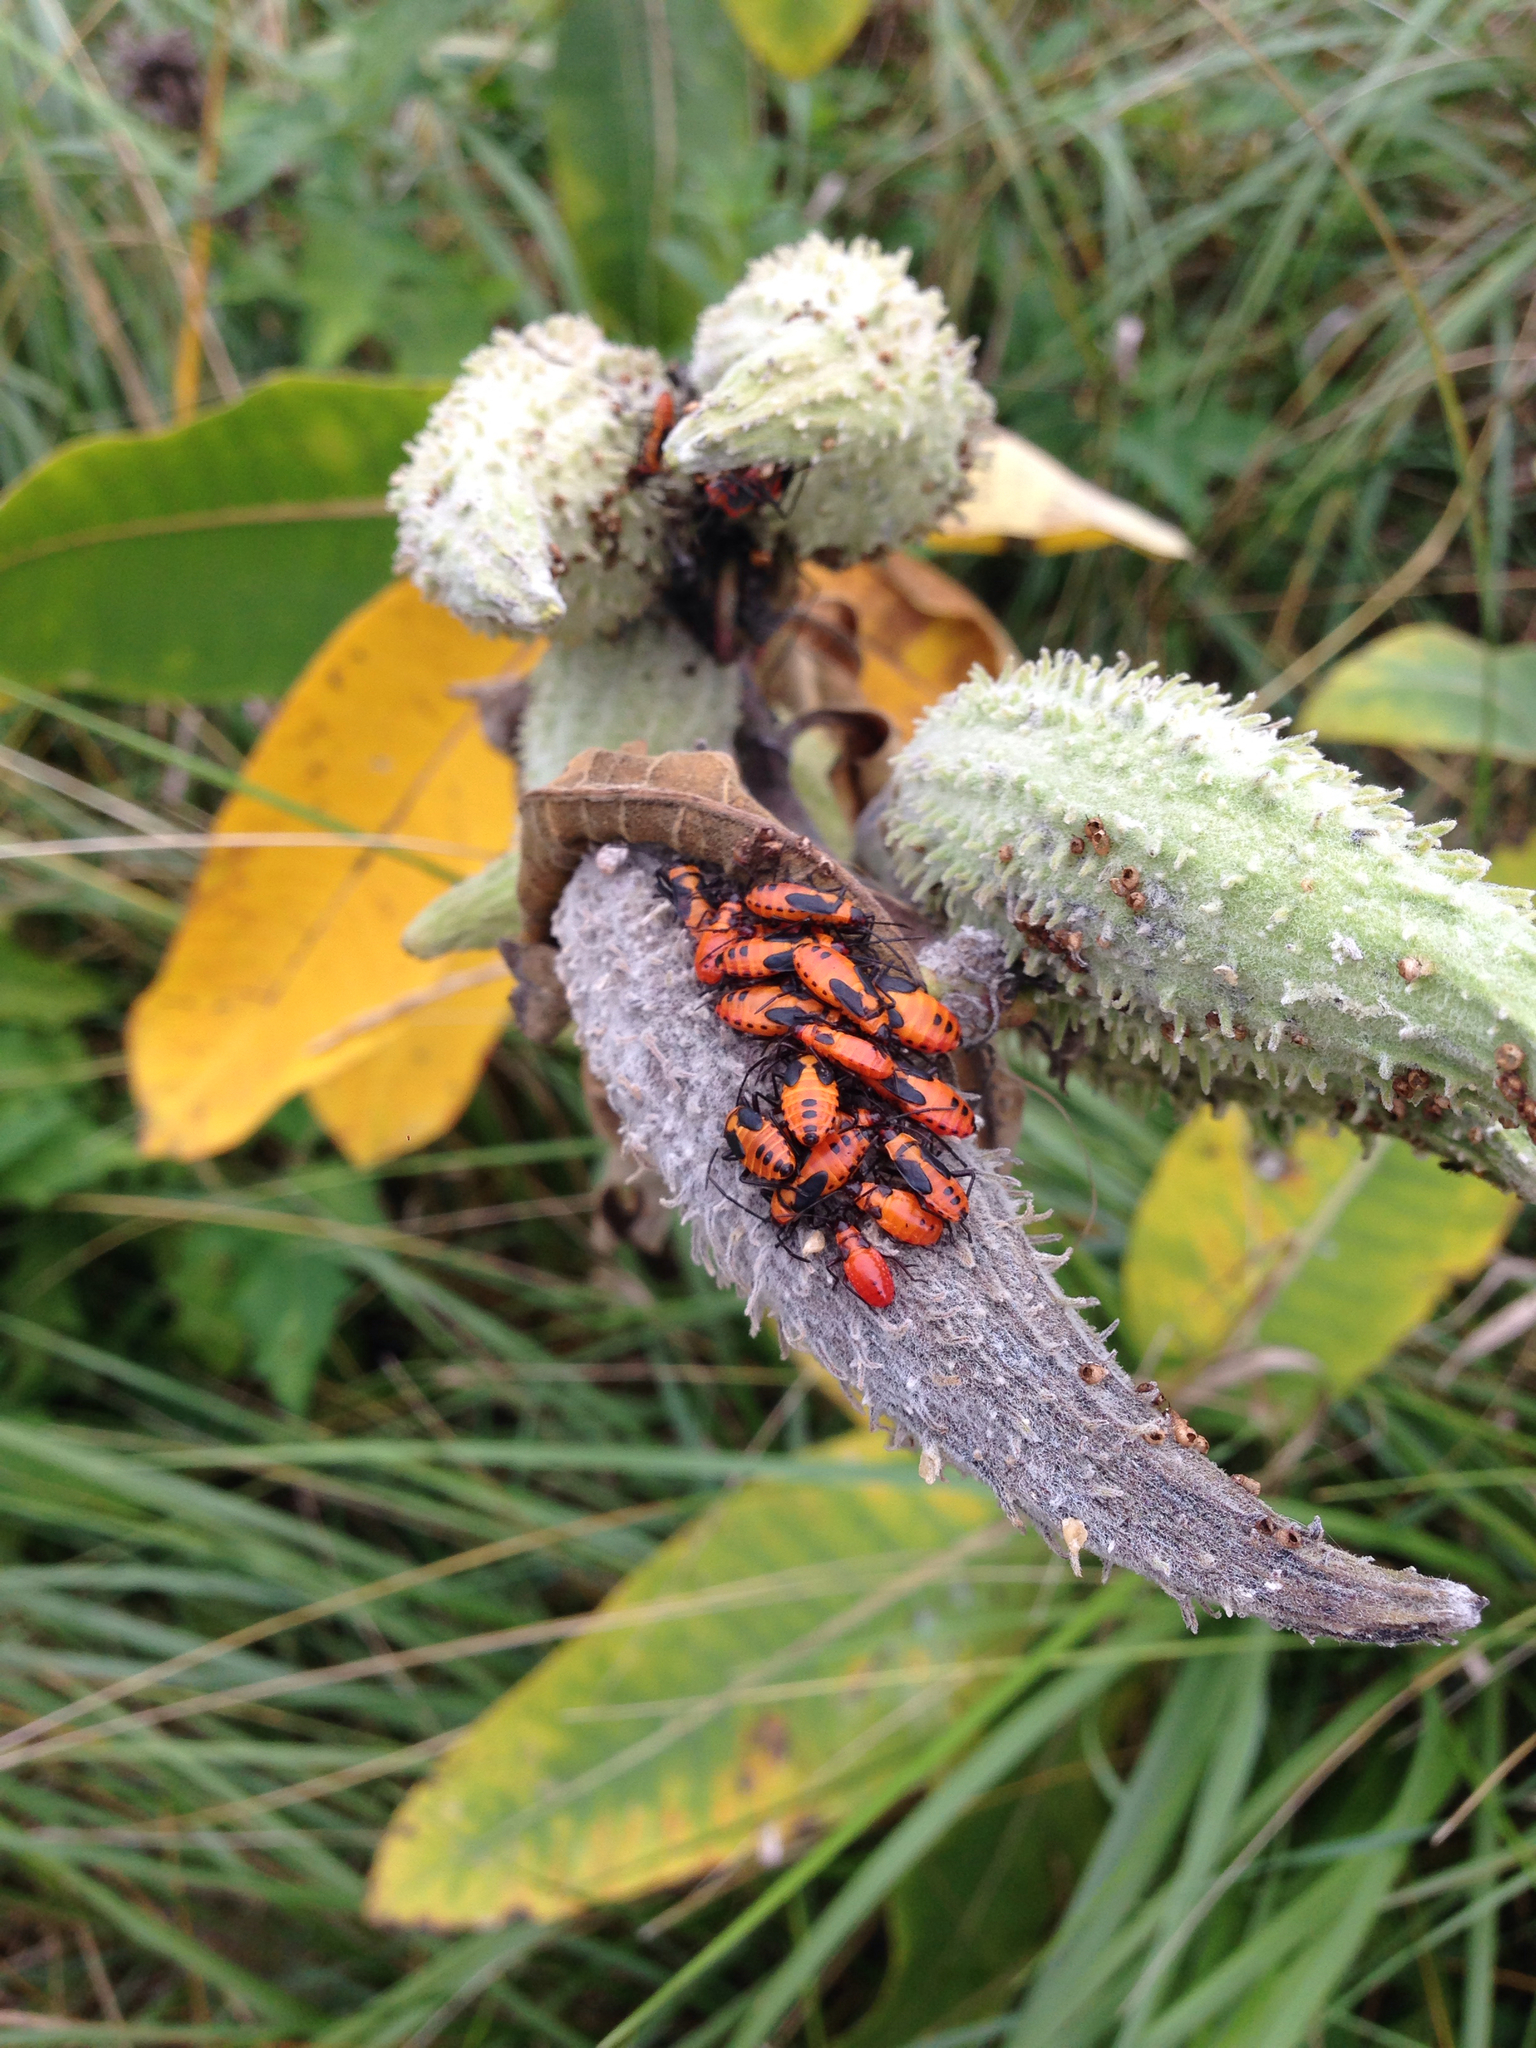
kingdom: Animalia
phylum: Arthropoda
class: Insecta
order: Hemiptera
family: Lygaeidae
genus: Oncopeltus
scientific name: Oncopeltus fasciatus
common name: Large milkweed bug
